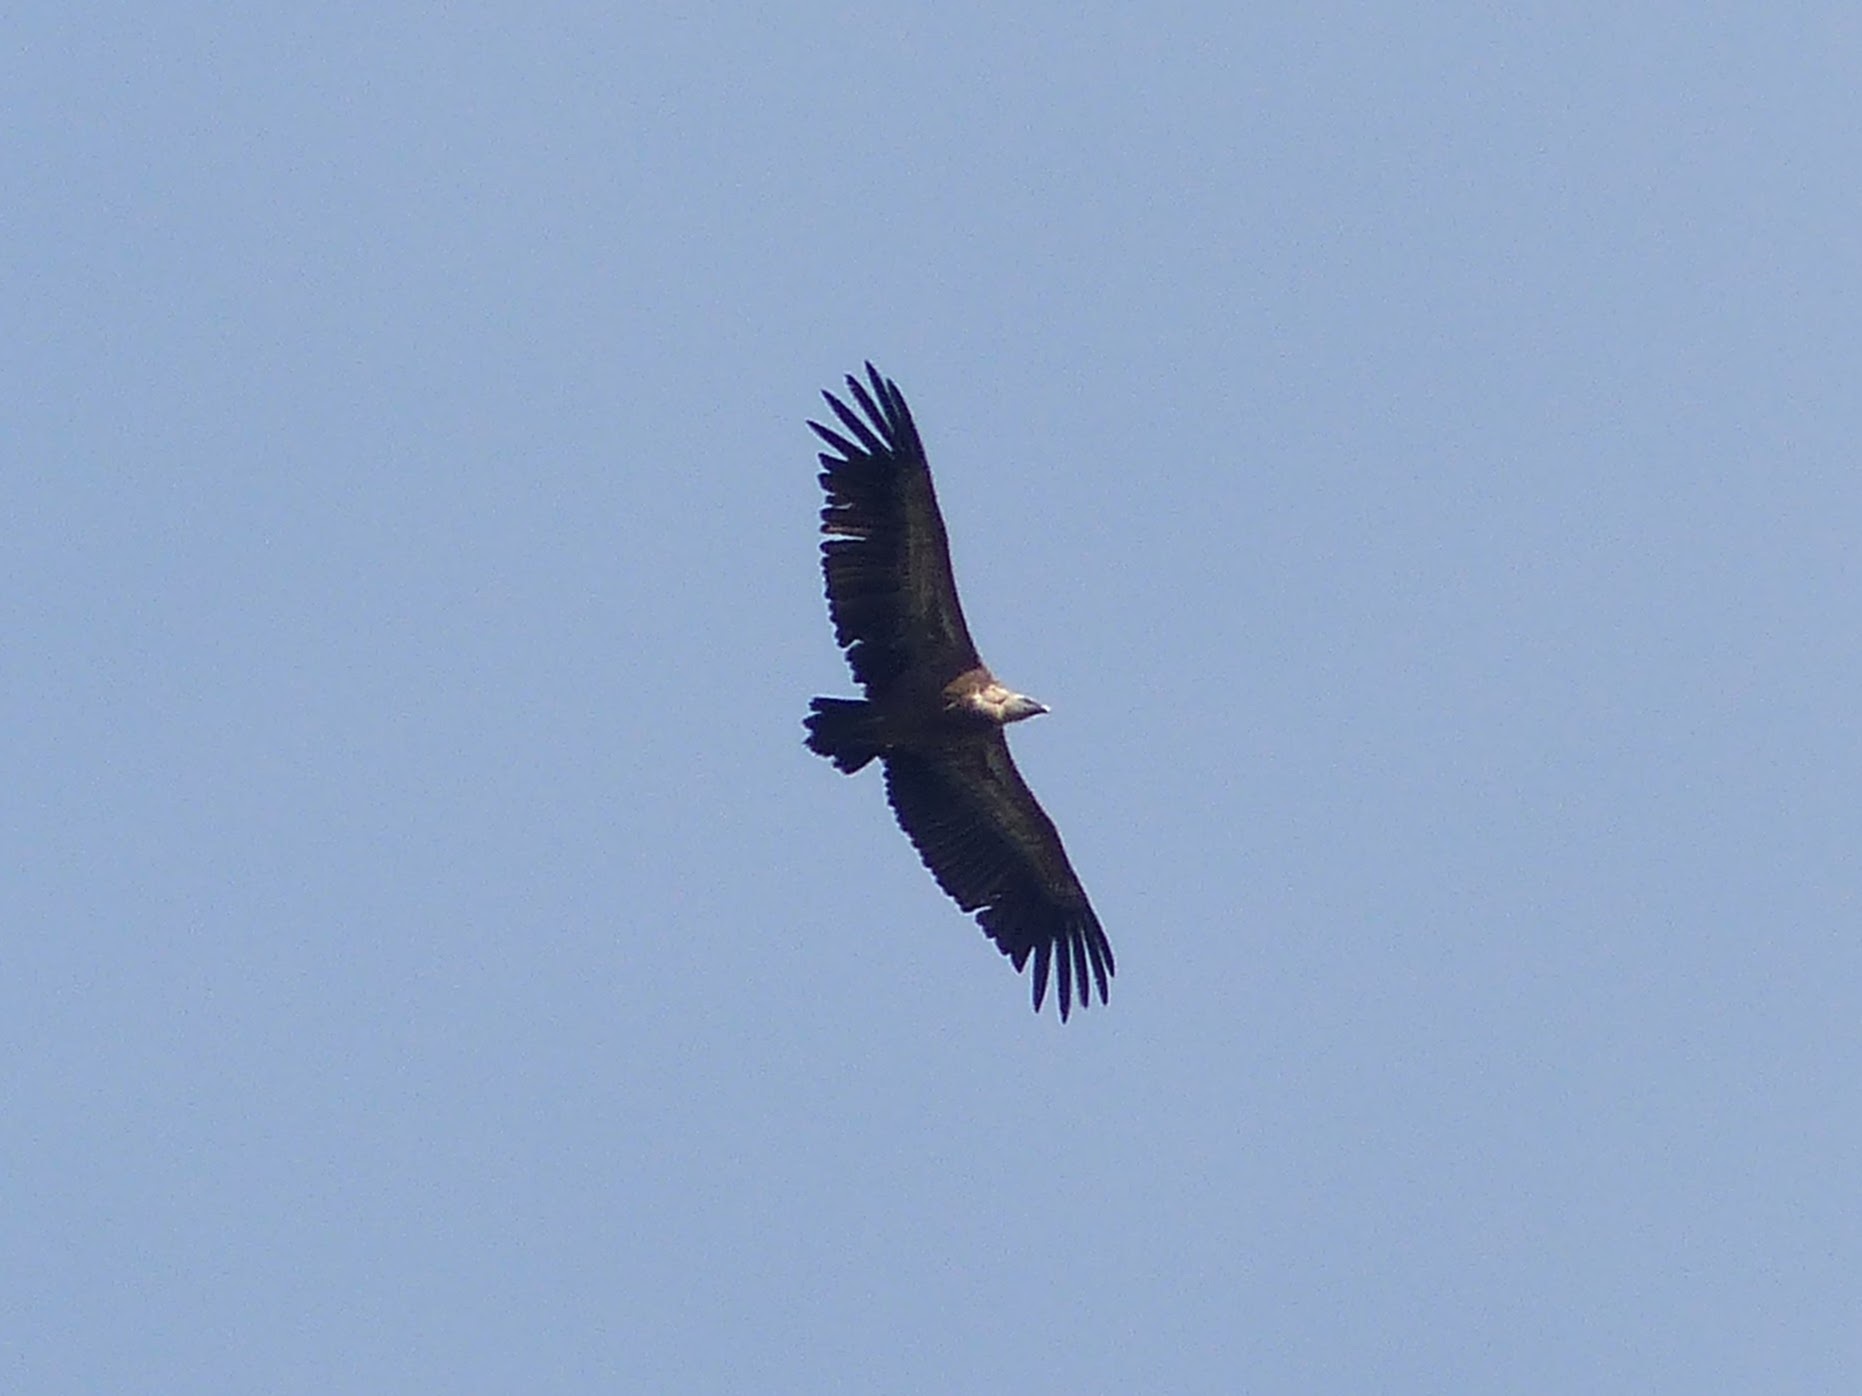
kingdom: Animalia
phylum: Chordata
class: Aves
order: Accipitriformes
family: Accipitridae
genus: Gyps
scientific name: Gyps fulvus
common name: Griffon vulture
